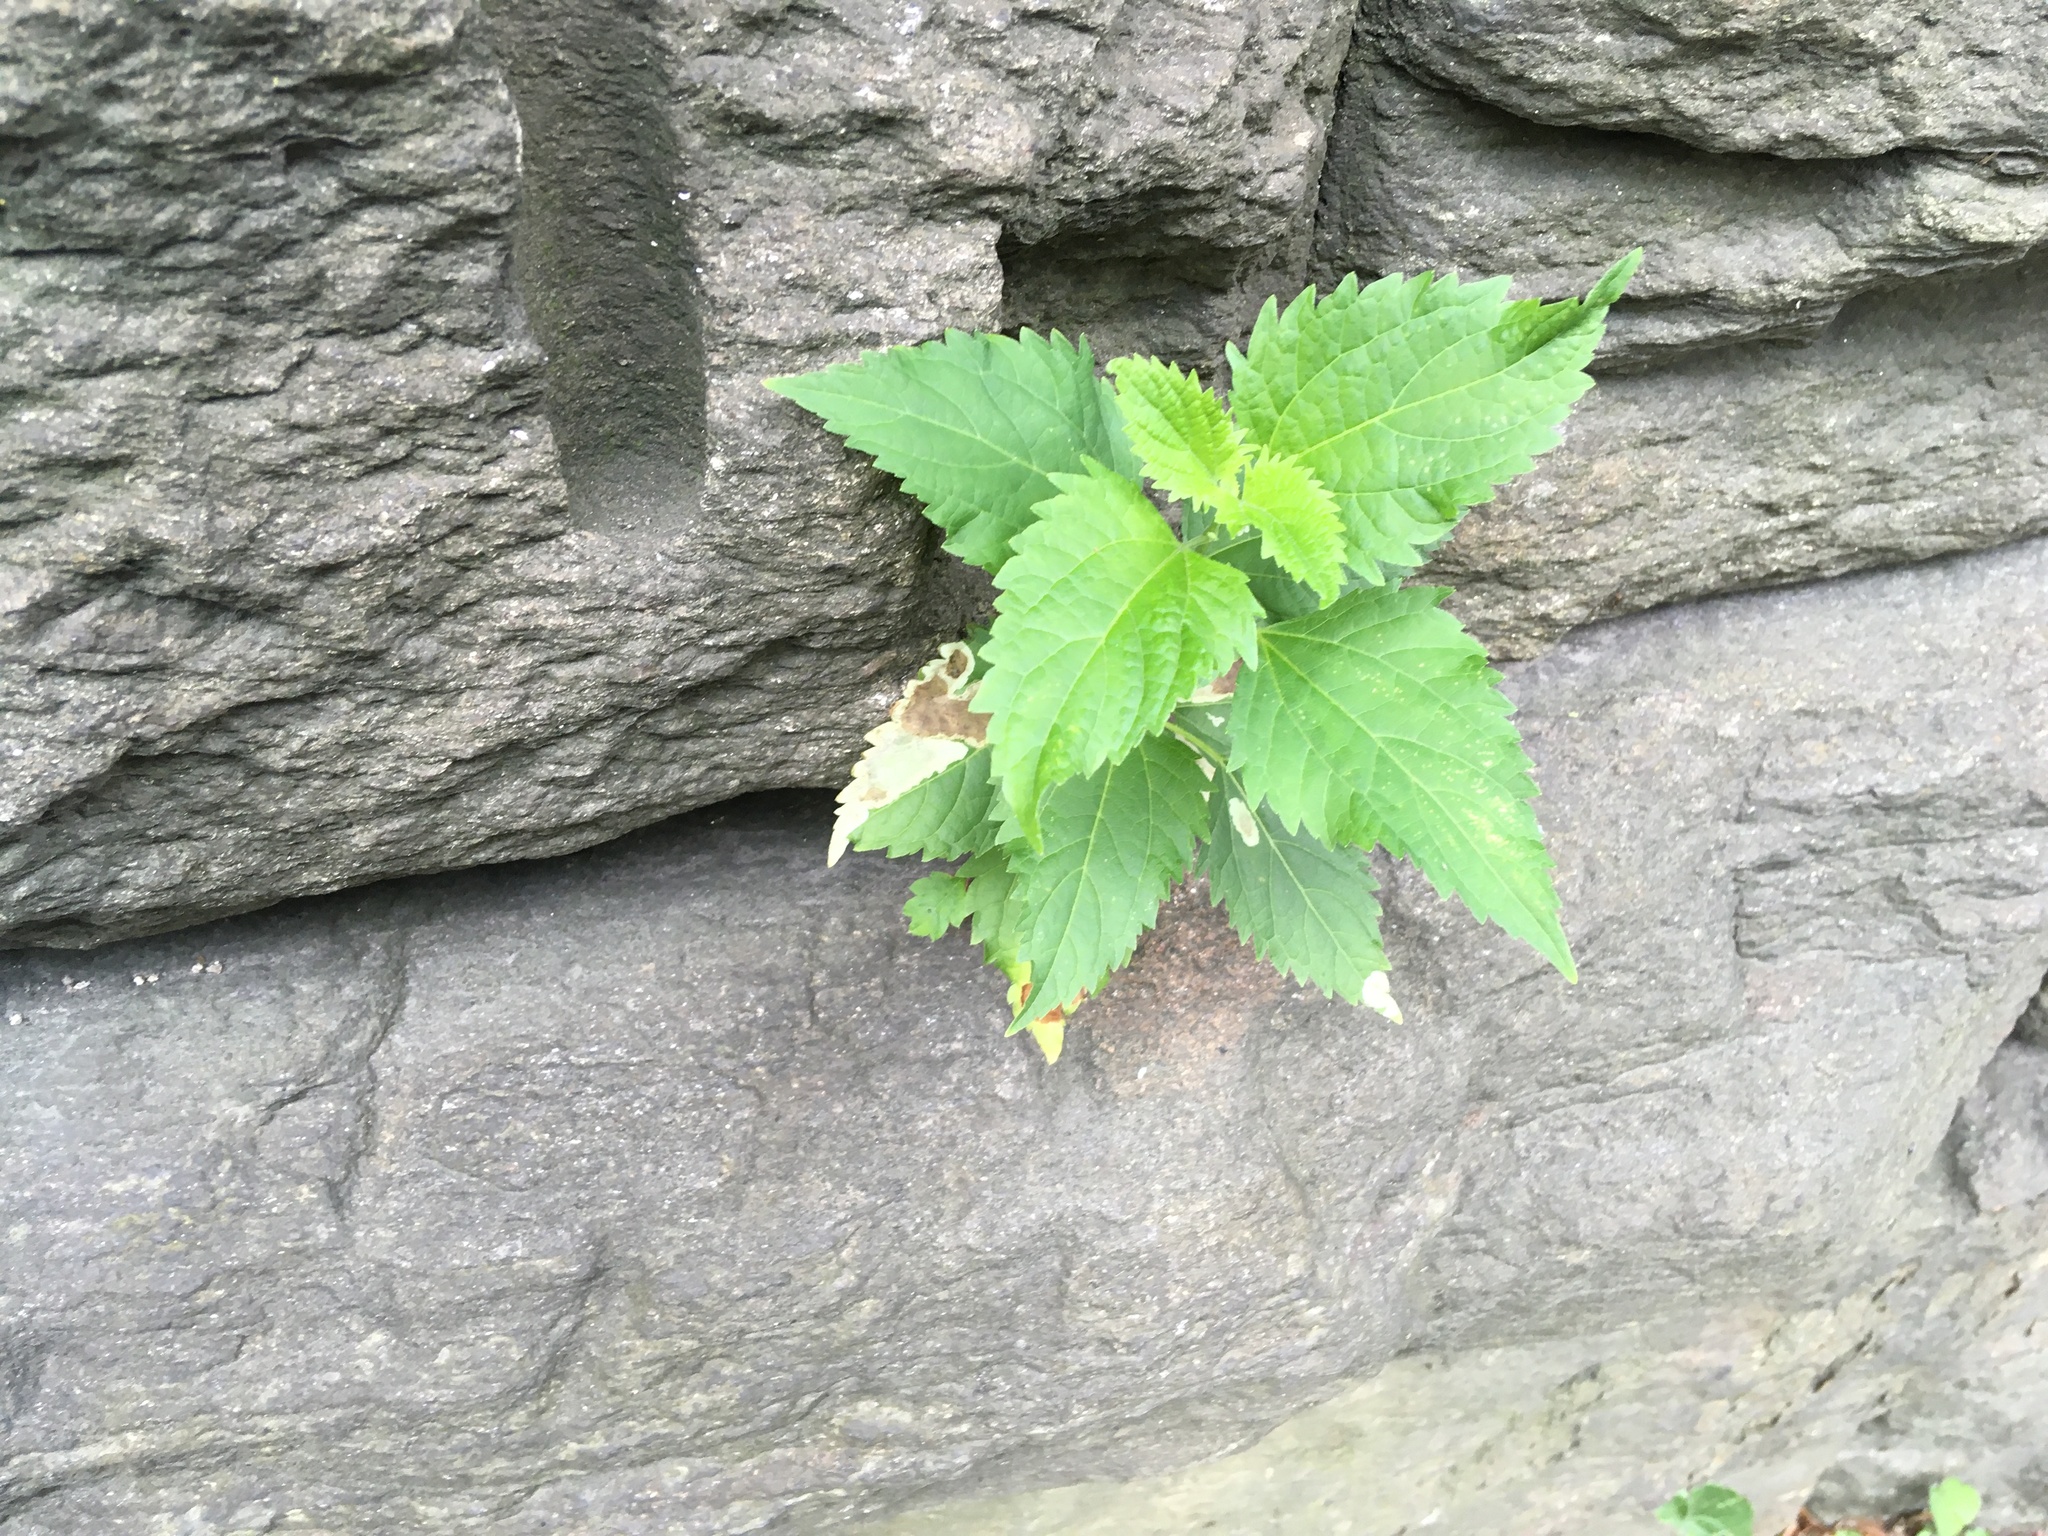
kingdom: Plantae
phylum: Tracheophyta
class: Magnoliopsida
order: Asterales
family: Asteraceae
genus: Ageratina
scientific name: Ageratina altissima
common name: White snakeroot
